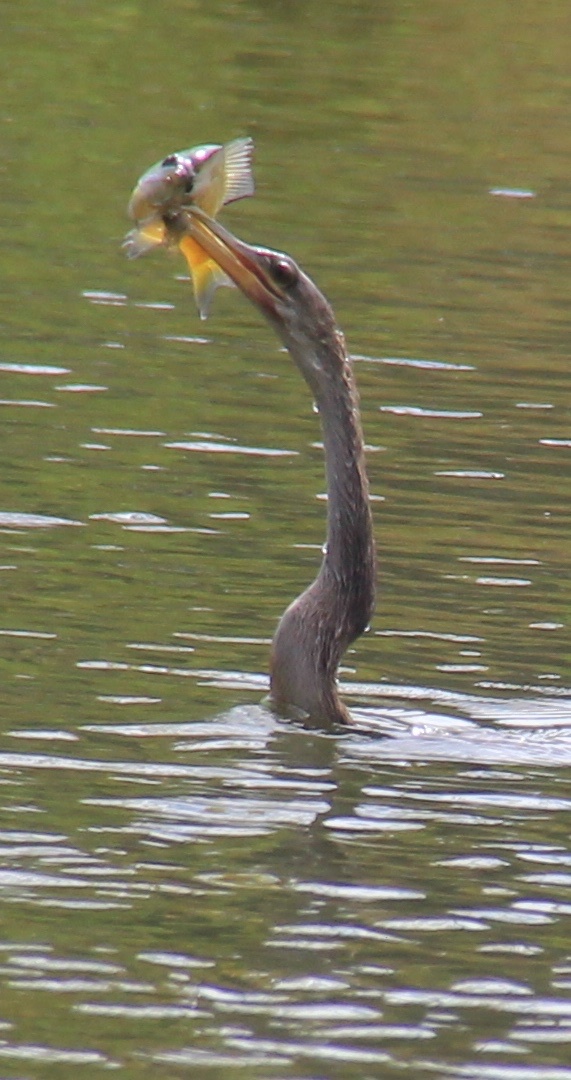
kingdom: Animalia
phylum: Chordata
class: Aves
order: Suliformes
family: Anhingidae
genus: Anhinga
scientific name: Anhinga anhinga
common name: Anhinga
